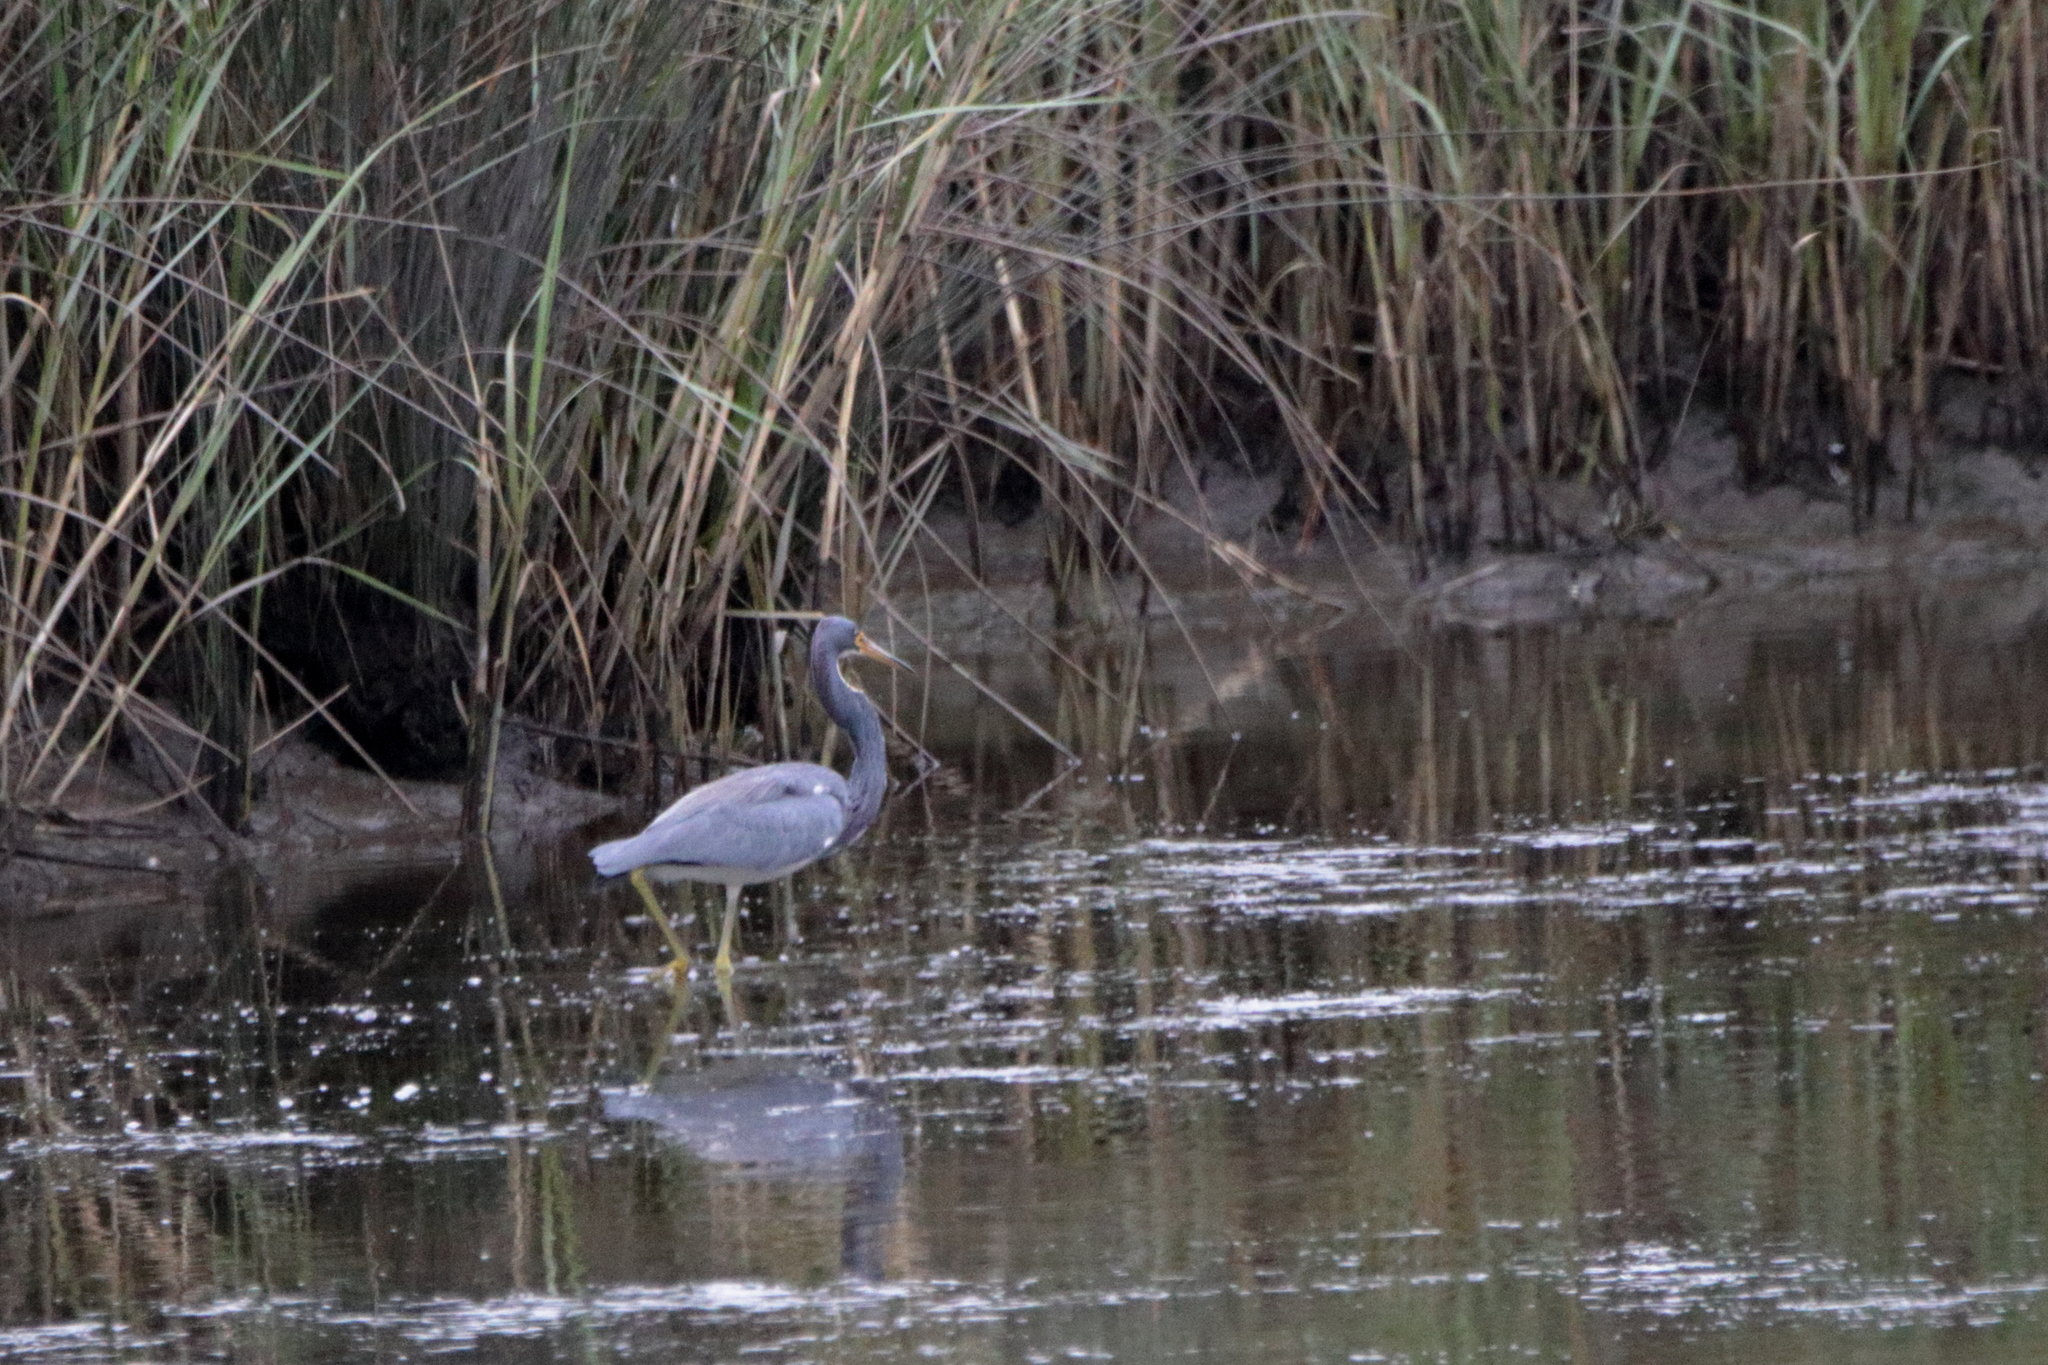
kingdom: Animalia
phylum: Chordata
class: Aves
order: Pelecaniformes
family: Ardeidae
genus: Egretta
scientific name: Egretta tricolor
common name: Tricolored heron
